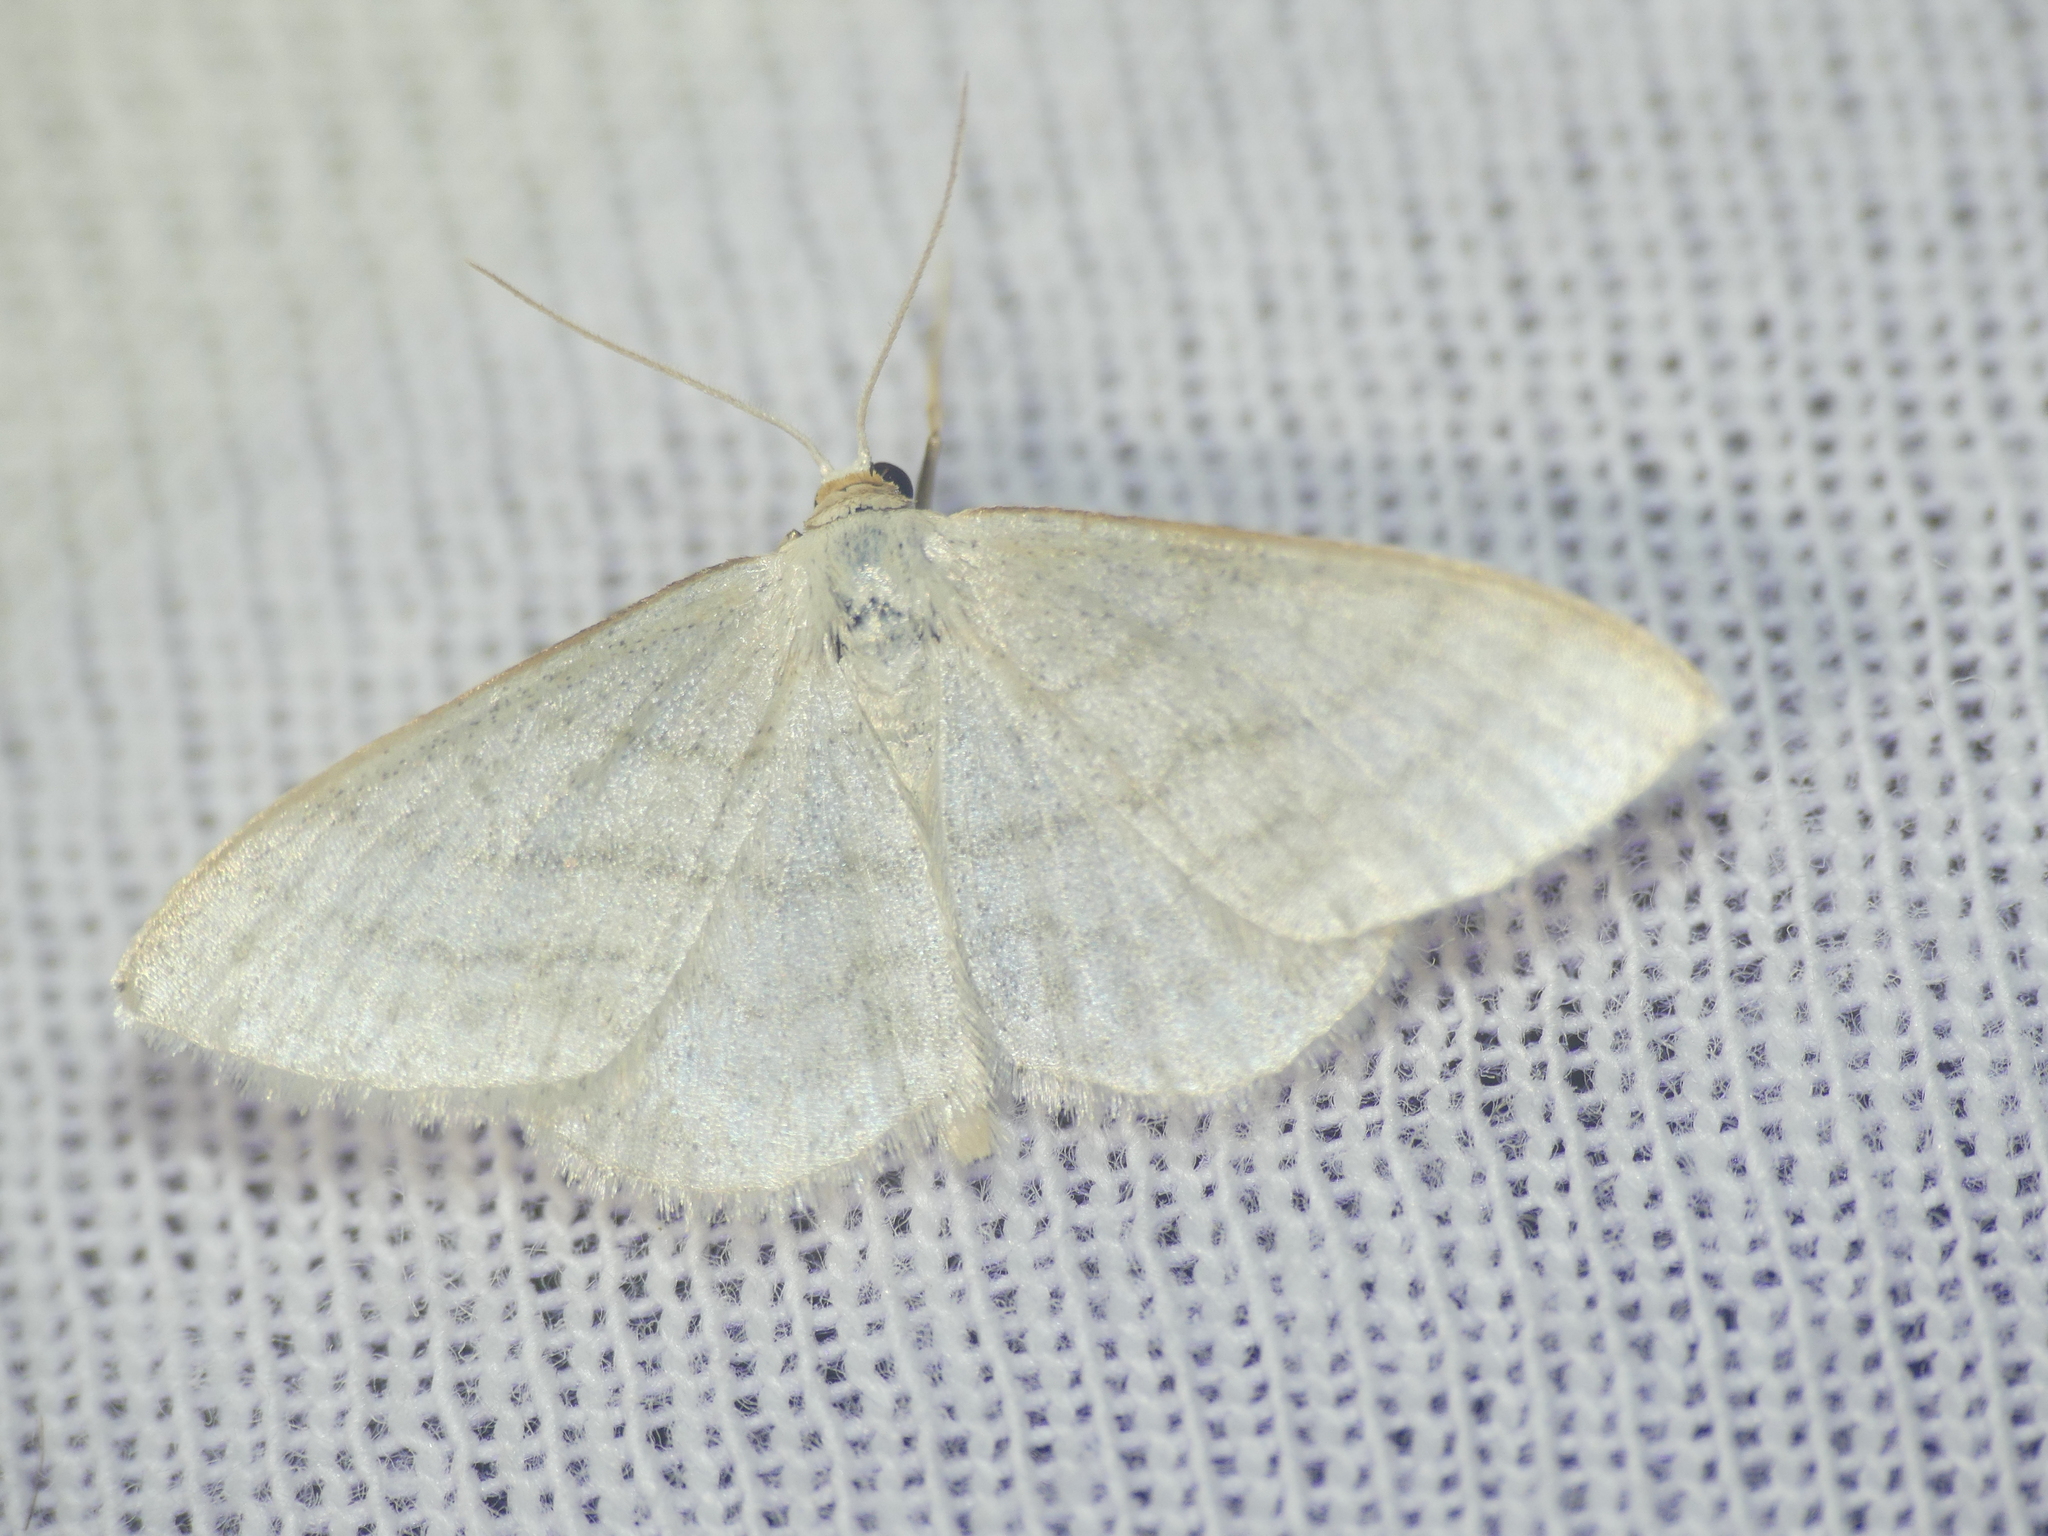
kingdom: Animalia
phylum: Arthropoda
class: Insecta
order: Lepidoptera
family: Geometridae
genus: Idaea
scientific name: Idaea subsericeata
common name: Satin wave
